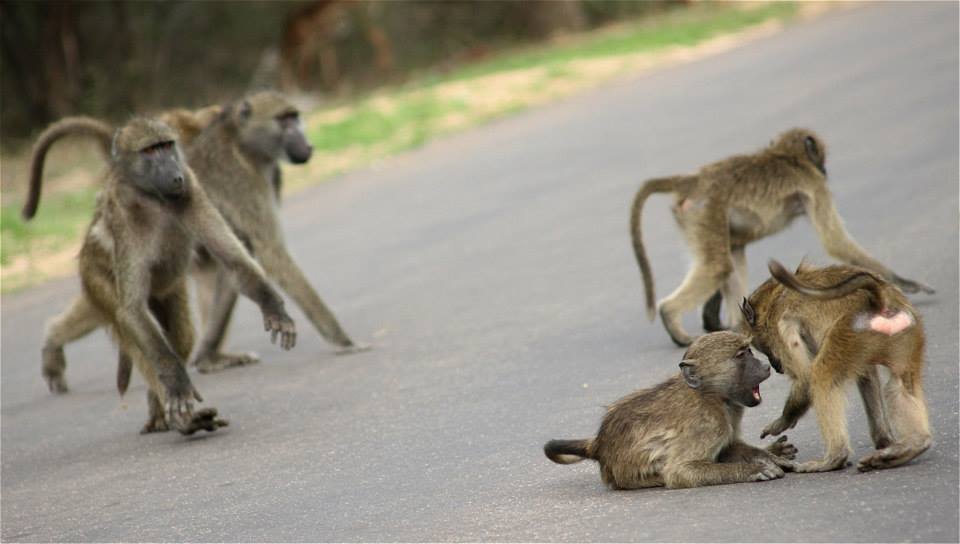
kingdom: Animalia
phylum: Chordata
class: Mammalia
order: Primates
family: Cercopithecidae
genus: Papio
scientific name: Papio ursinus
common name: Chacma baboon
